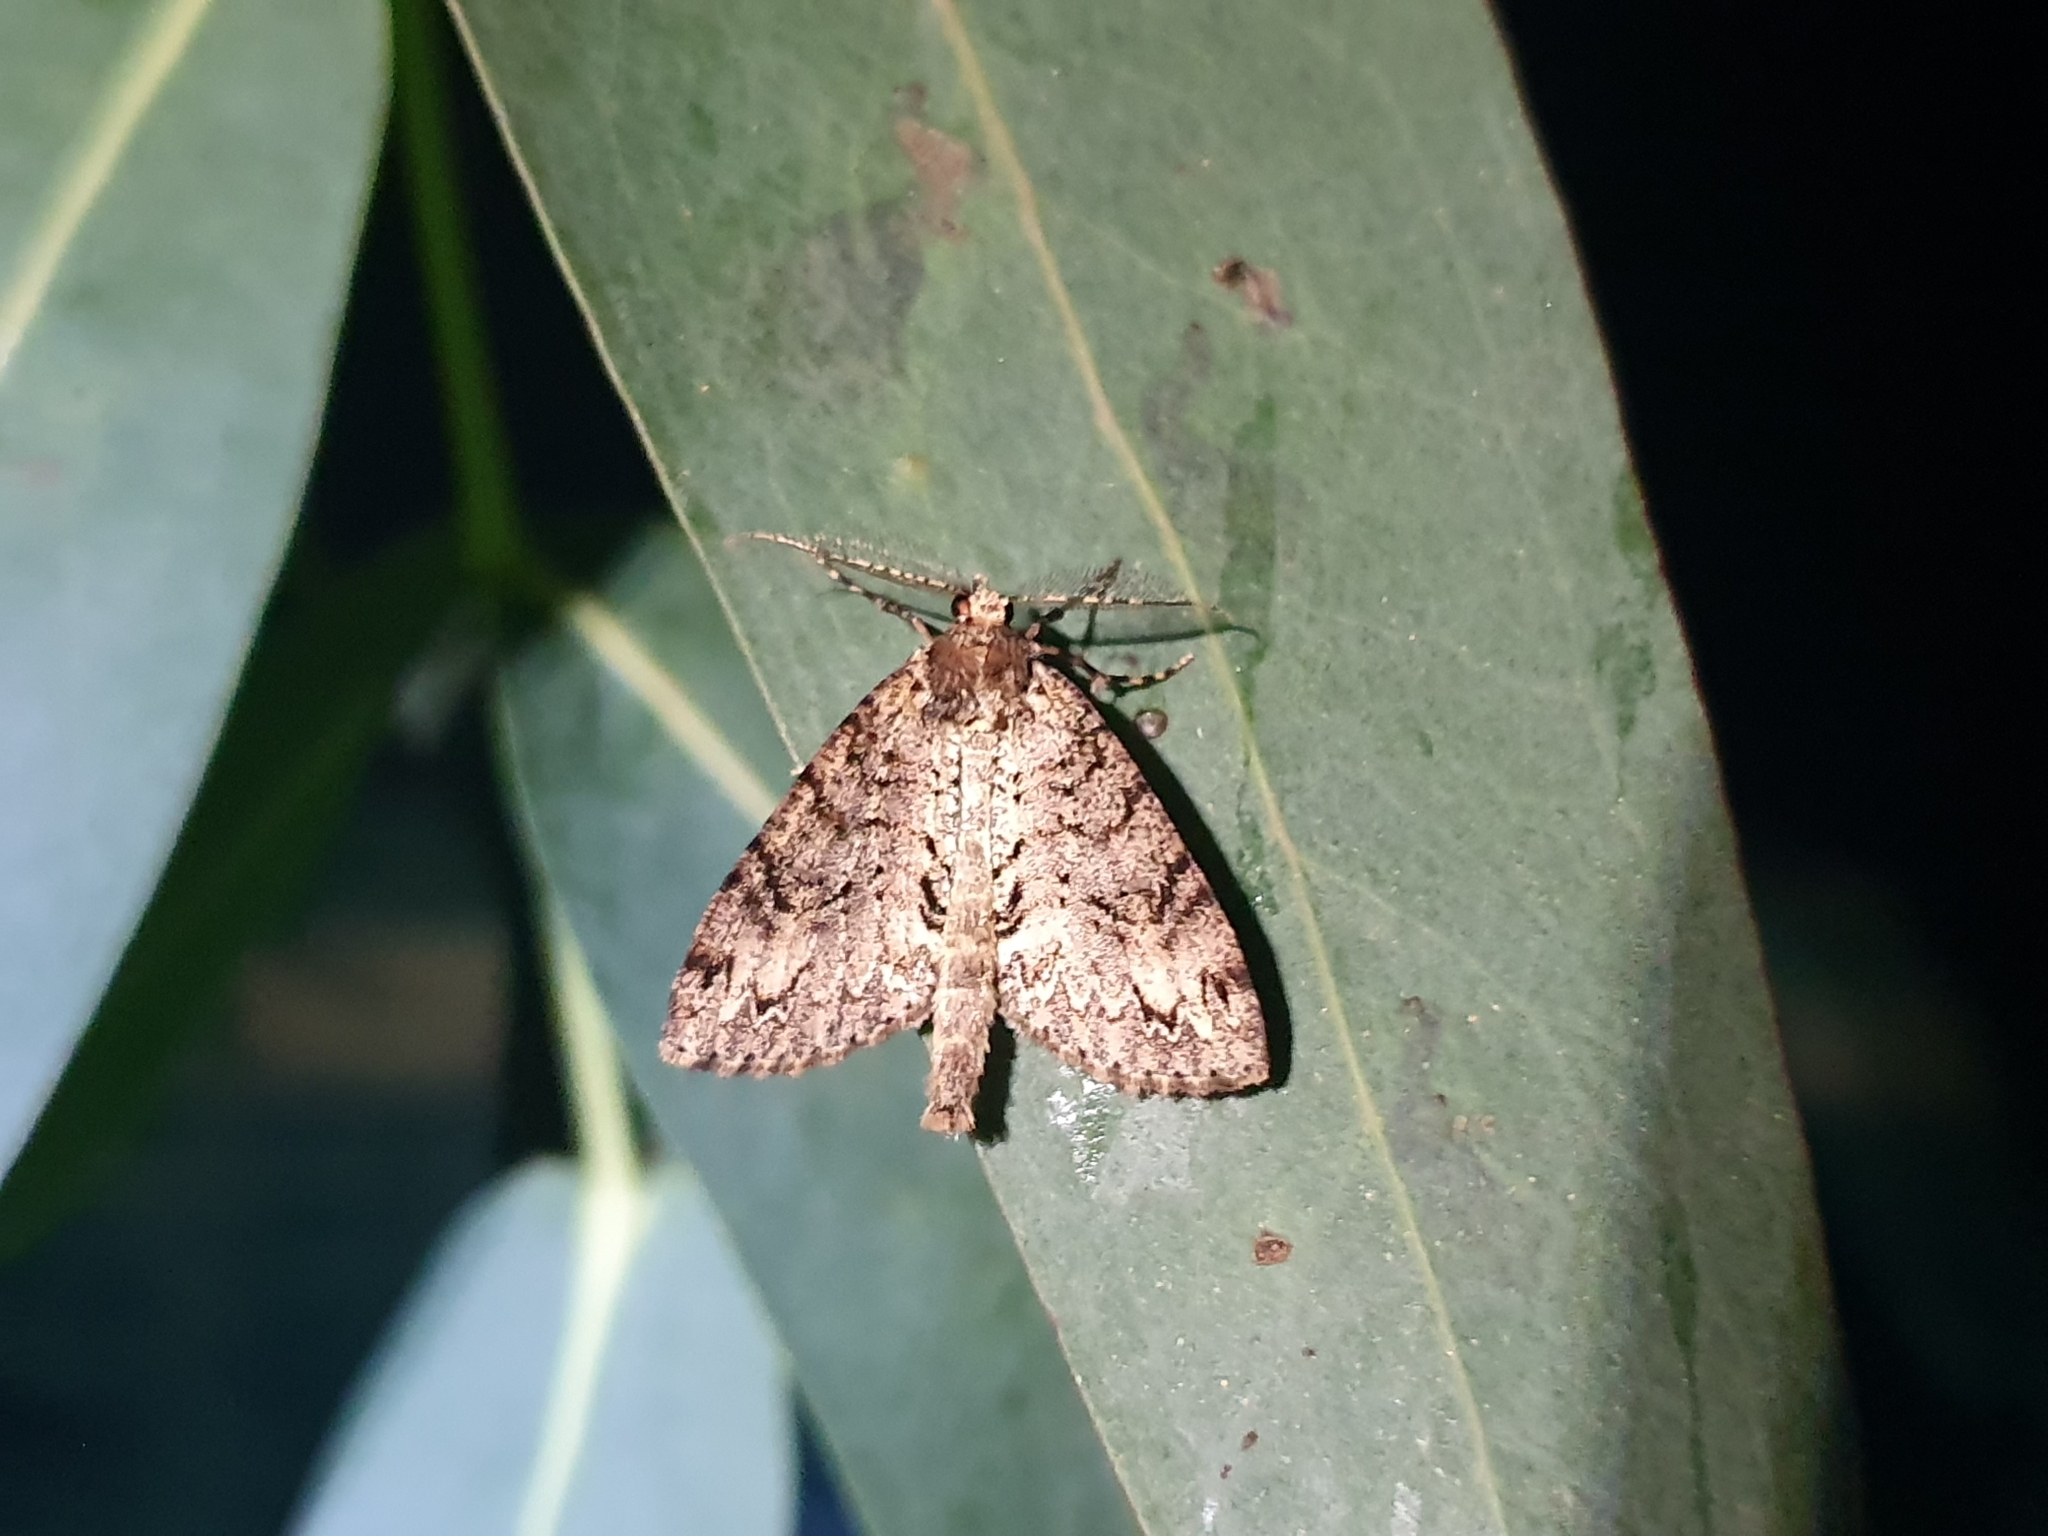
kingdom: Animalia
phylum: Arthropoda
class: Insecta
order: Lepidoptera
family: Geometridae
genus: Pseudocoremia
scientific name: Pseudocoremia suavis
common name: Common forest looper
